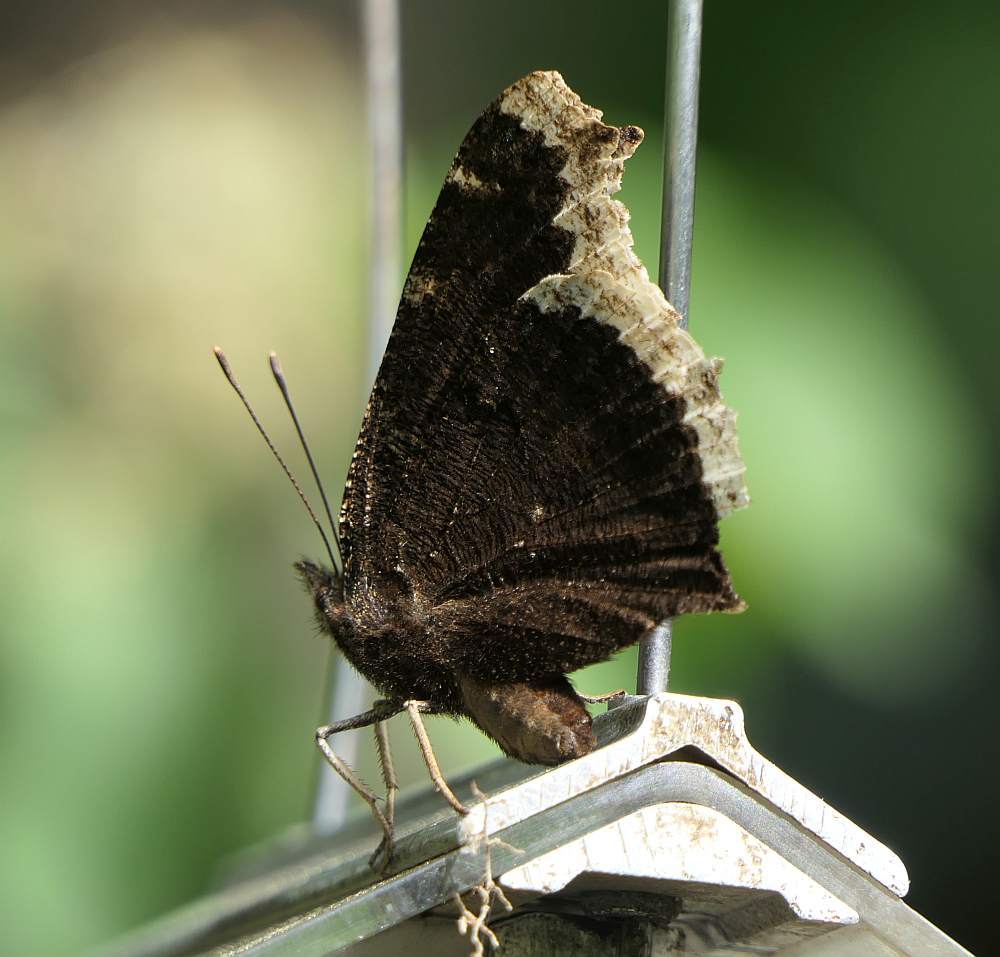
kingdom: Animalia
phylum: Arthropoda
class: Insecta
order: Lepidoptera
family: Nymphalidae
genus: Nymphalis
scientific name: Nymphalis antiopa
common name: Camberwell beauty
